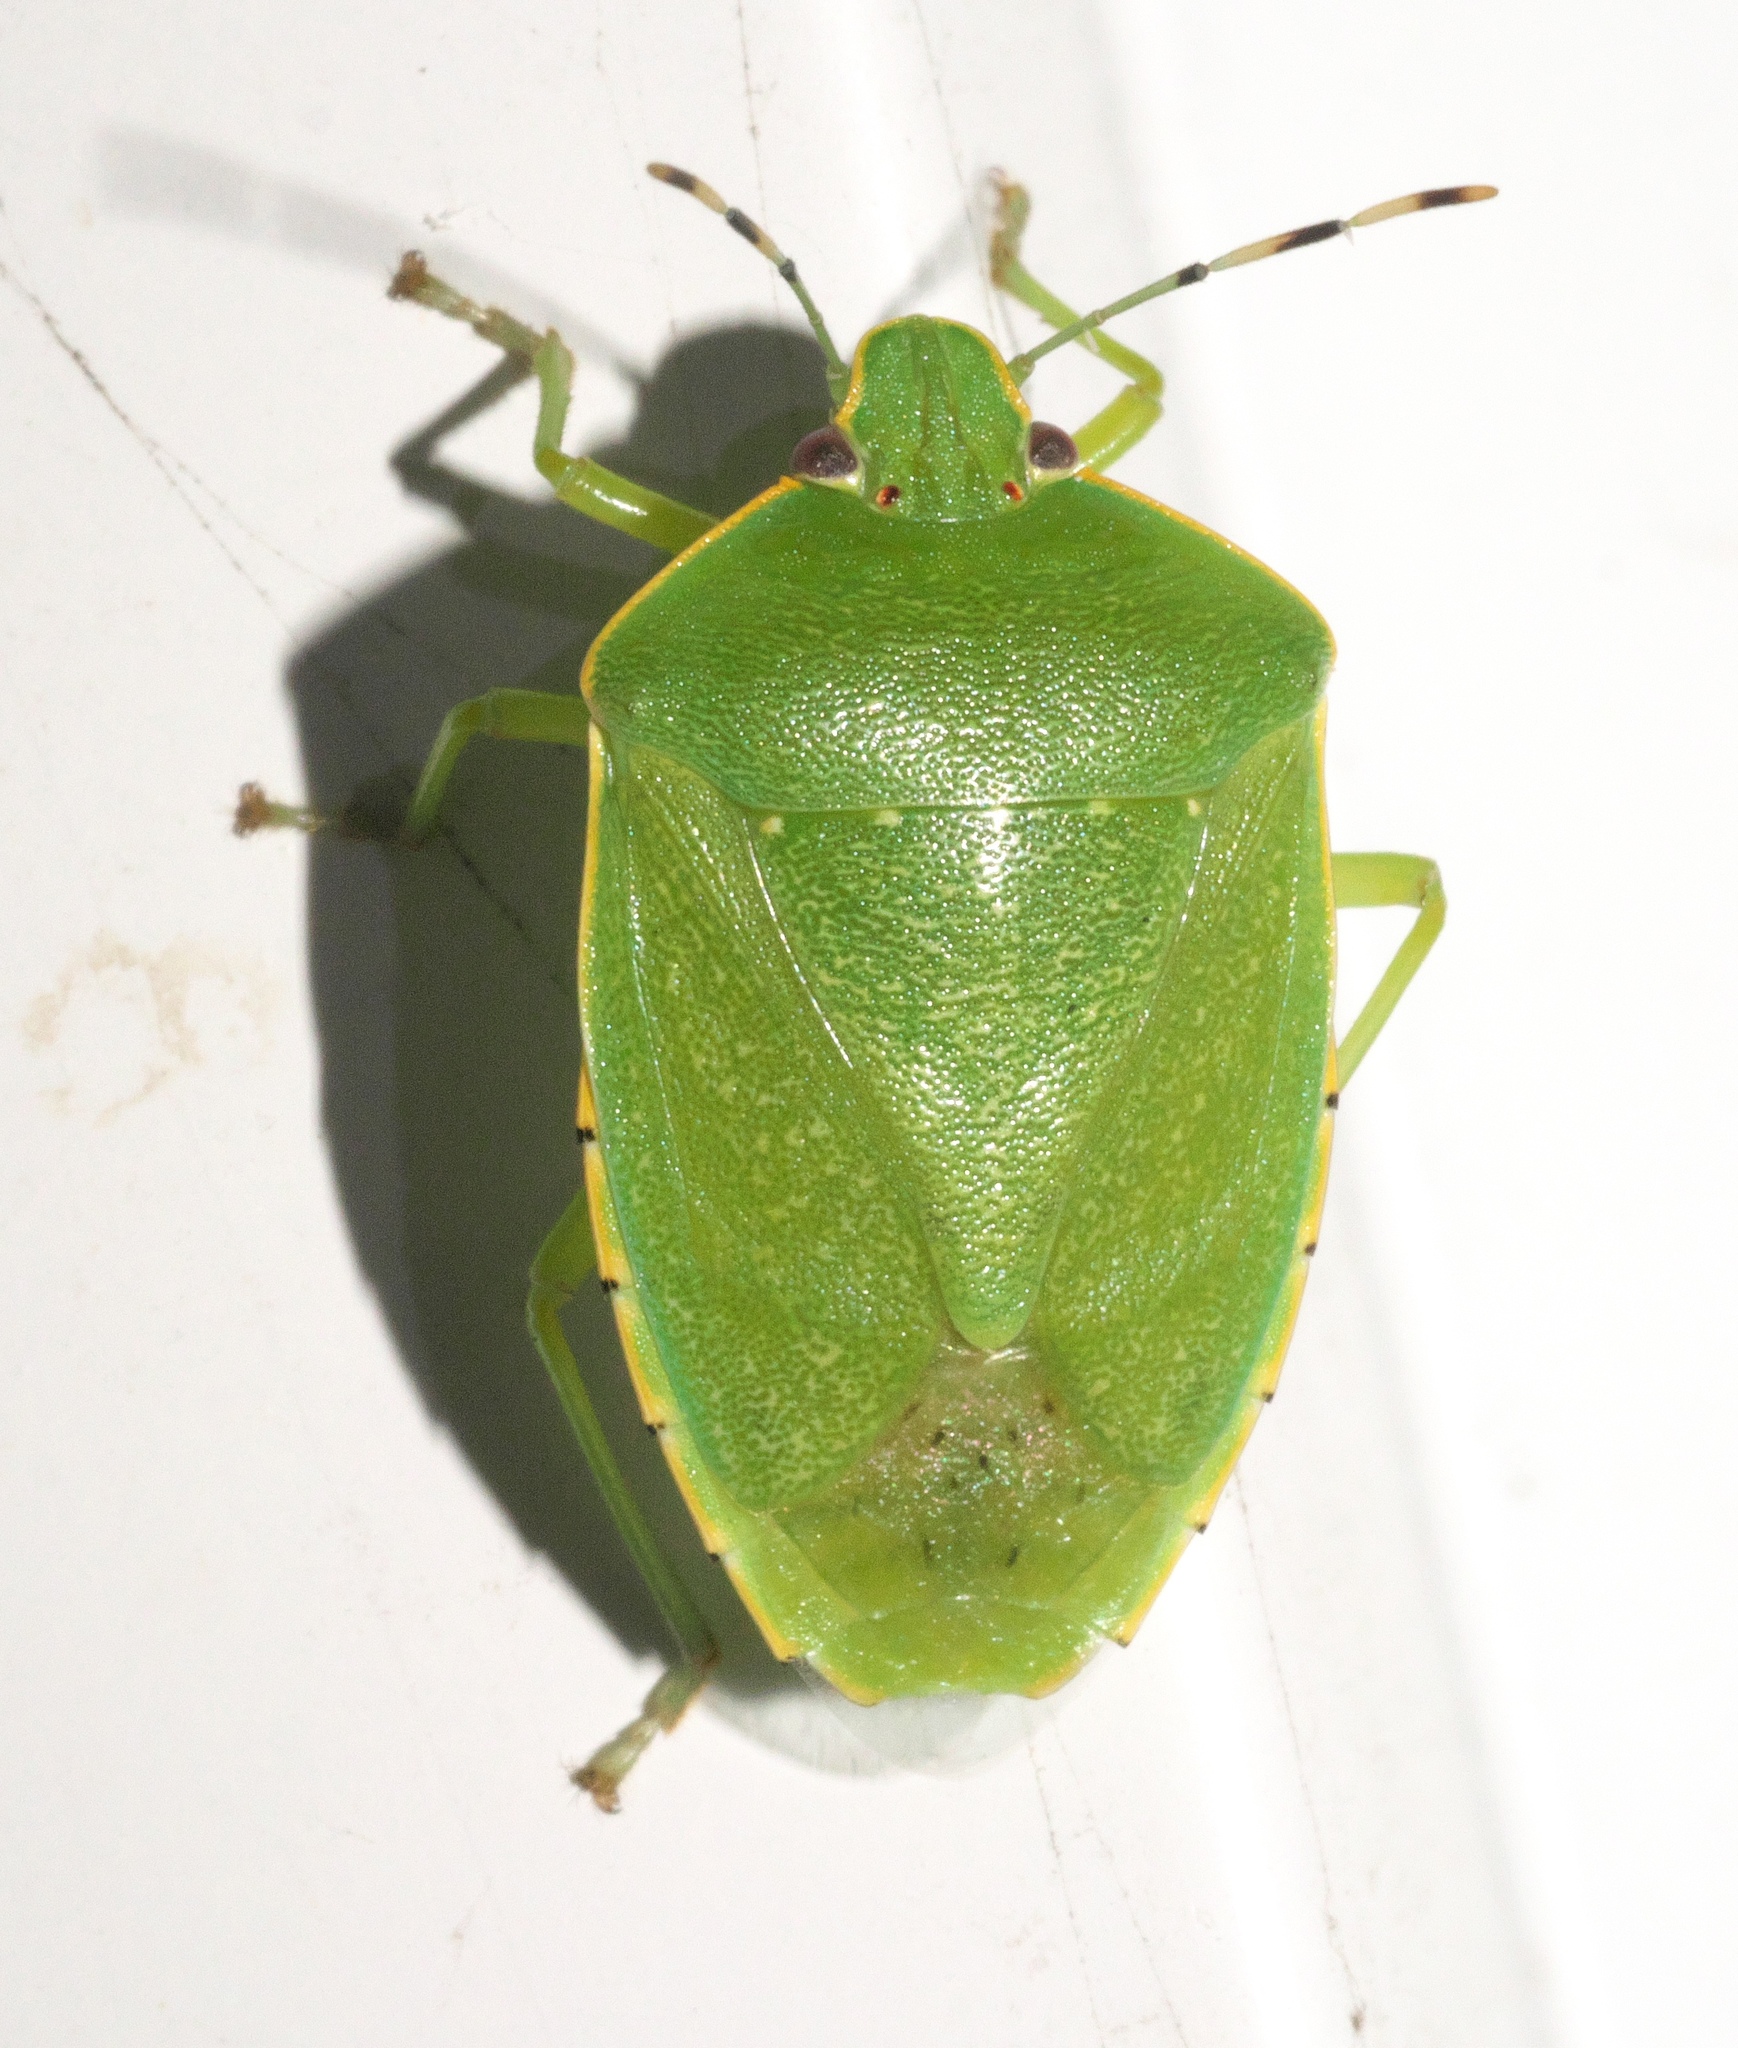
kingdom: Animalia
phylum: Arthropoda
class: Insecta
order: Hemiptera
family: Pentatomidae
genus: Chinavia
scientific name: Chinavia hilaris
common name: Green stink bug
